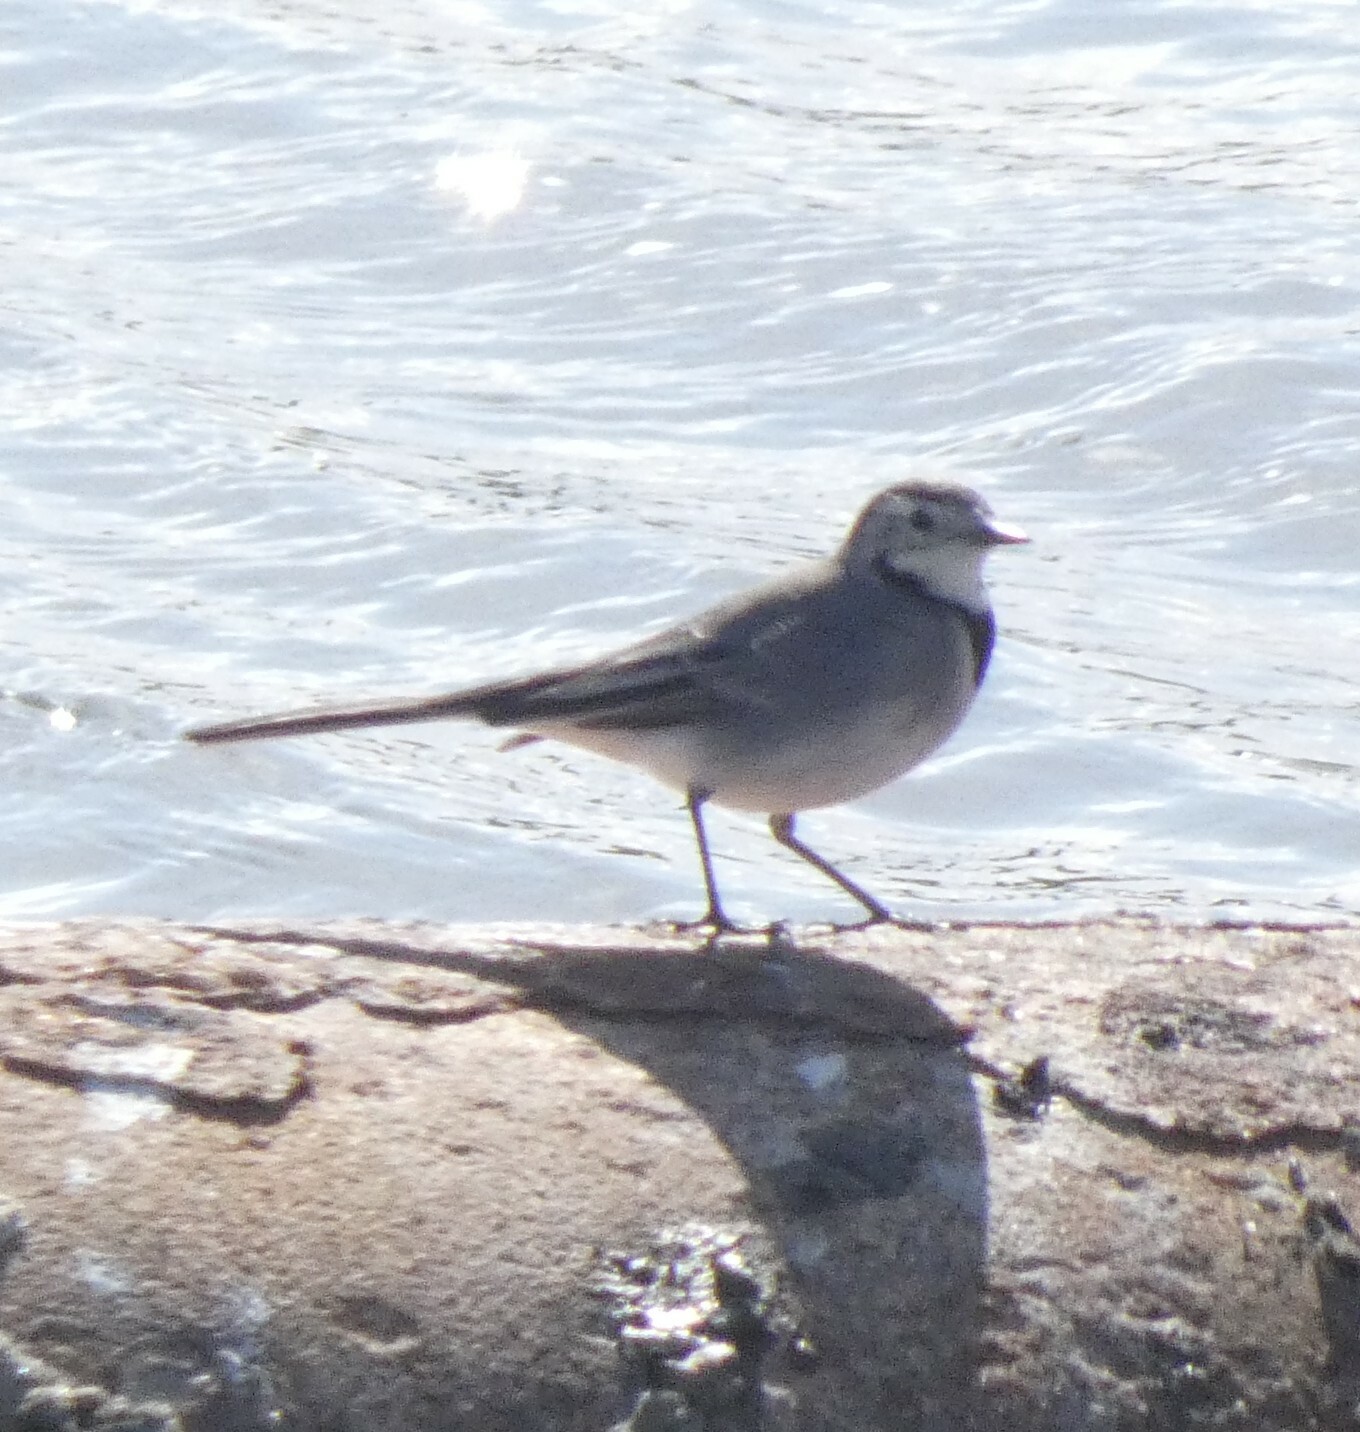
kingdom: Animalia
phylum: Chordata
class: Aves
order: Passeriformes
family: Motacillidae
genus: Motacilla
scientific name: Motacilla alba
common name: White wagtail
